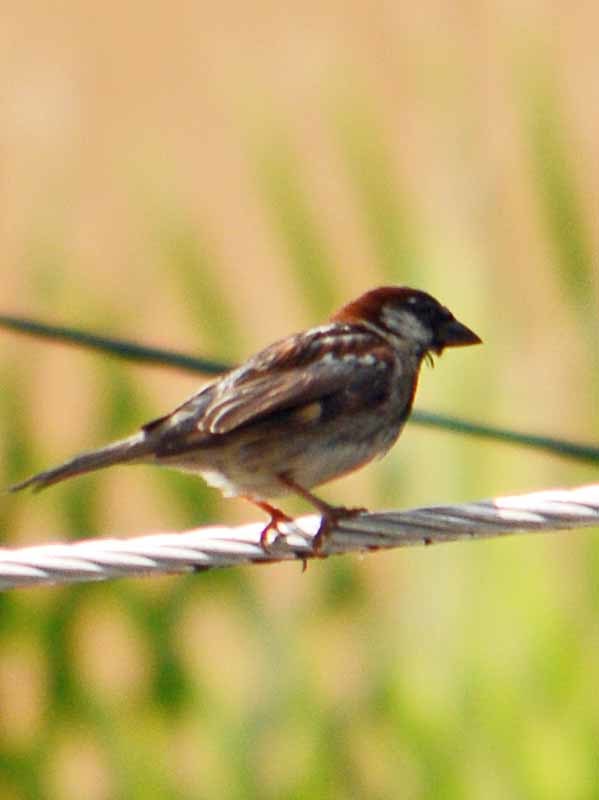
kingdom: Animalia
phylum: Chordata
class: Aves
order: Passeriformes
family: Passeridae
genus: Passer
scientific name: Passer domesticus
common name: House sparrow
